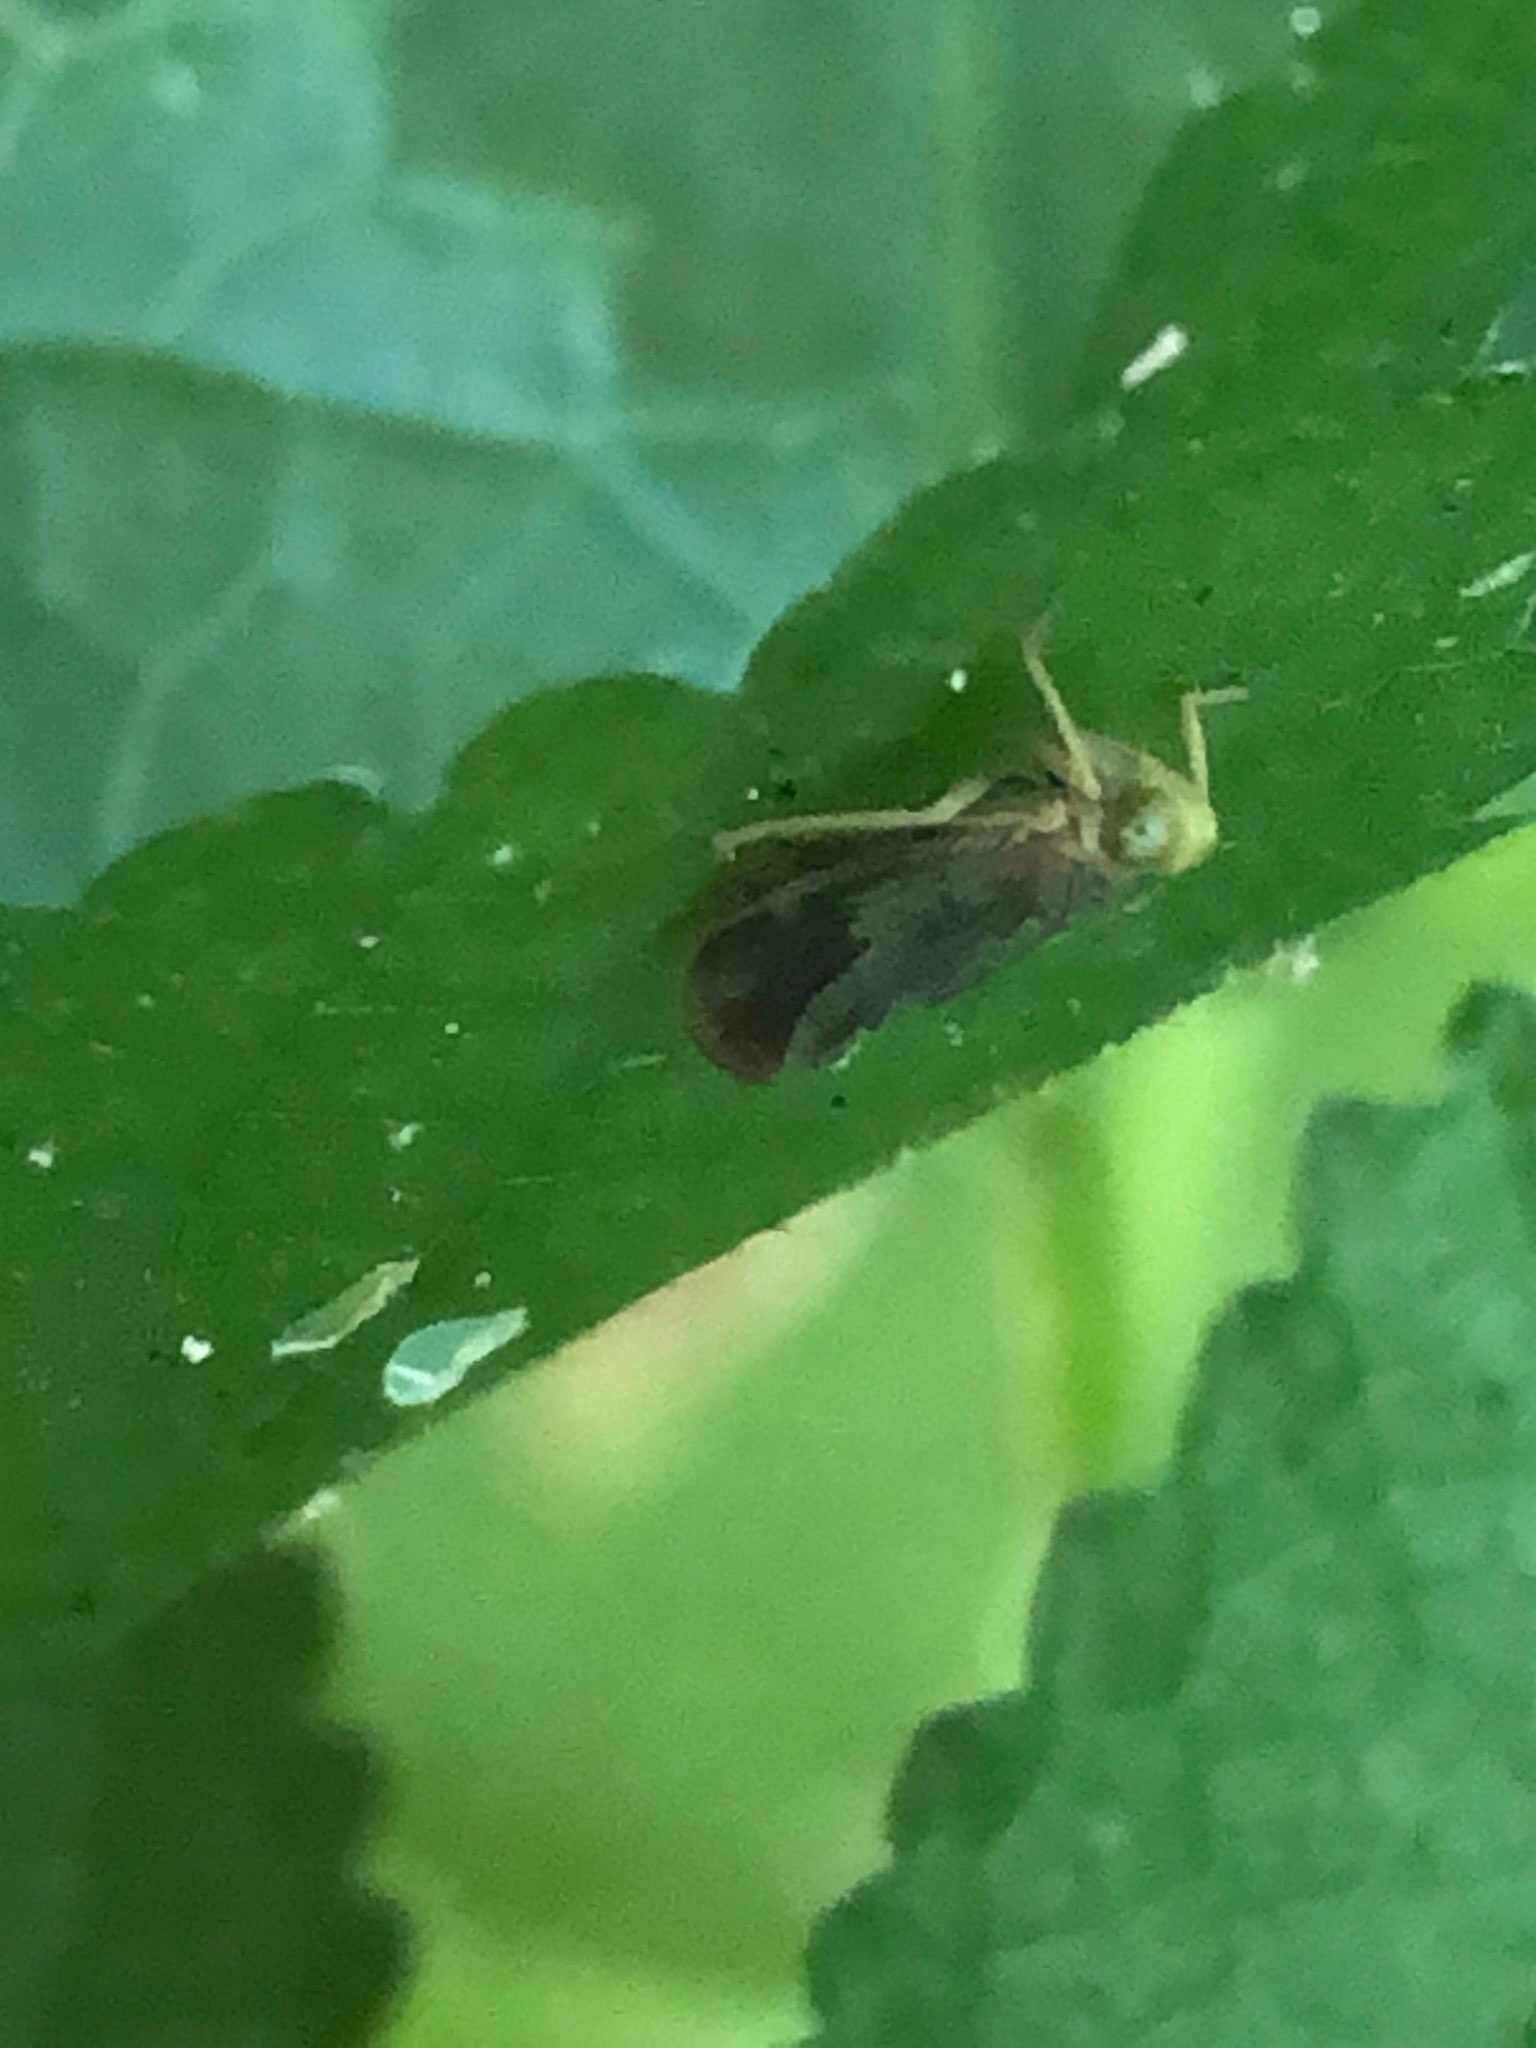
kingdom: Animalia
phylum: Arthropoda
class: Insecta
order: Hemiptera
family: Cicadellidae
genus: Jikradia
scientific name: Jikradia olitoria
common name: Coppery leafhopper
